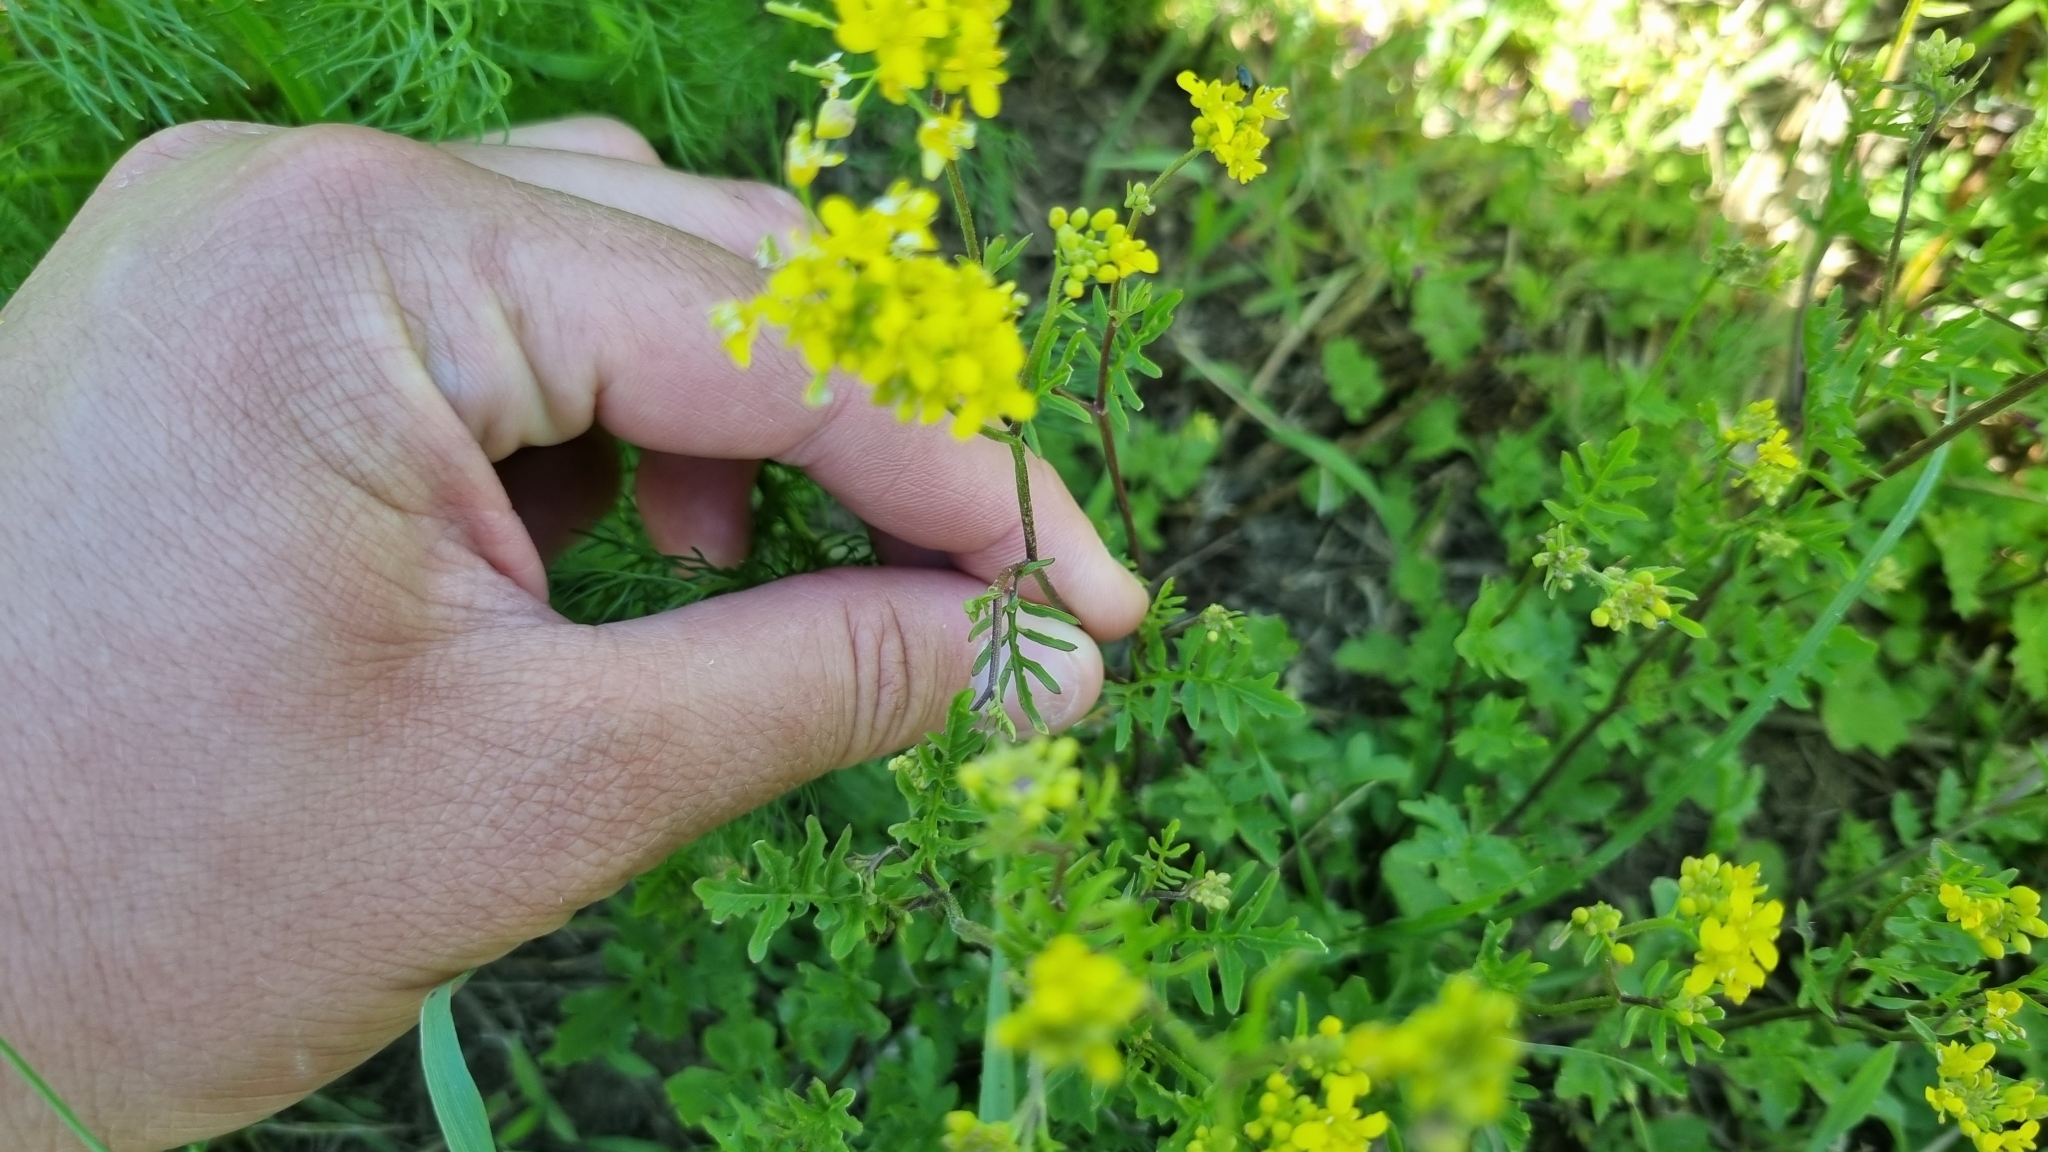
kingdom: Plantae
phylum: Tracheophyta
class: Magnoliopsida
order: Brassicales
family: Brassicaceae
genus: Rorippa
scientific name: Rorippa sylvestris
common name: Creeping yellowcress
